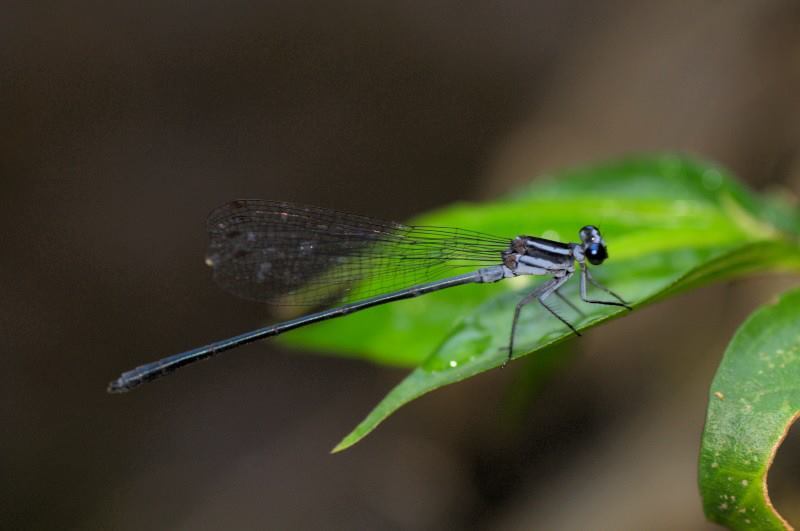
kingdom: Animalia
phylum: Arthropoda
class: Insecta
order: Odonata
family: Platycnemididae
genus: Calicnemia
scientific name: Calicnemia imitans
